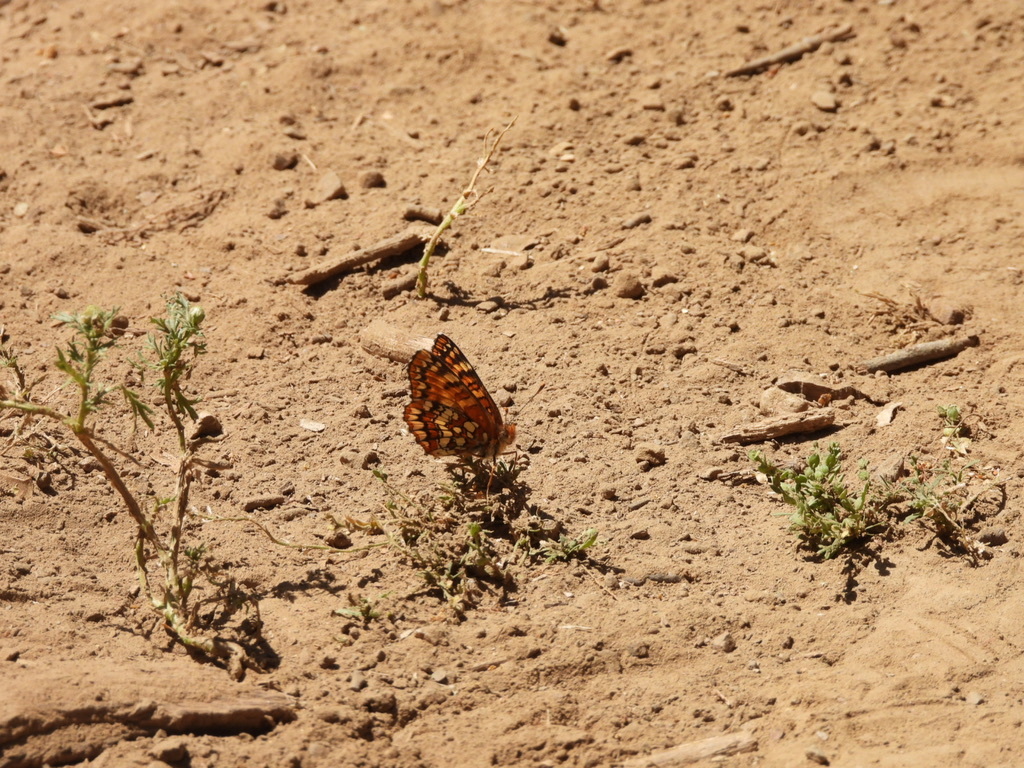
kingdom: Animalia
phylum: Arthropoda
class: Insecta
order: Lepidoptera
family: Nymphalidae
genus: Chlosyne
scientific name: Chlosyne palla
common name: Northern checkerspot
